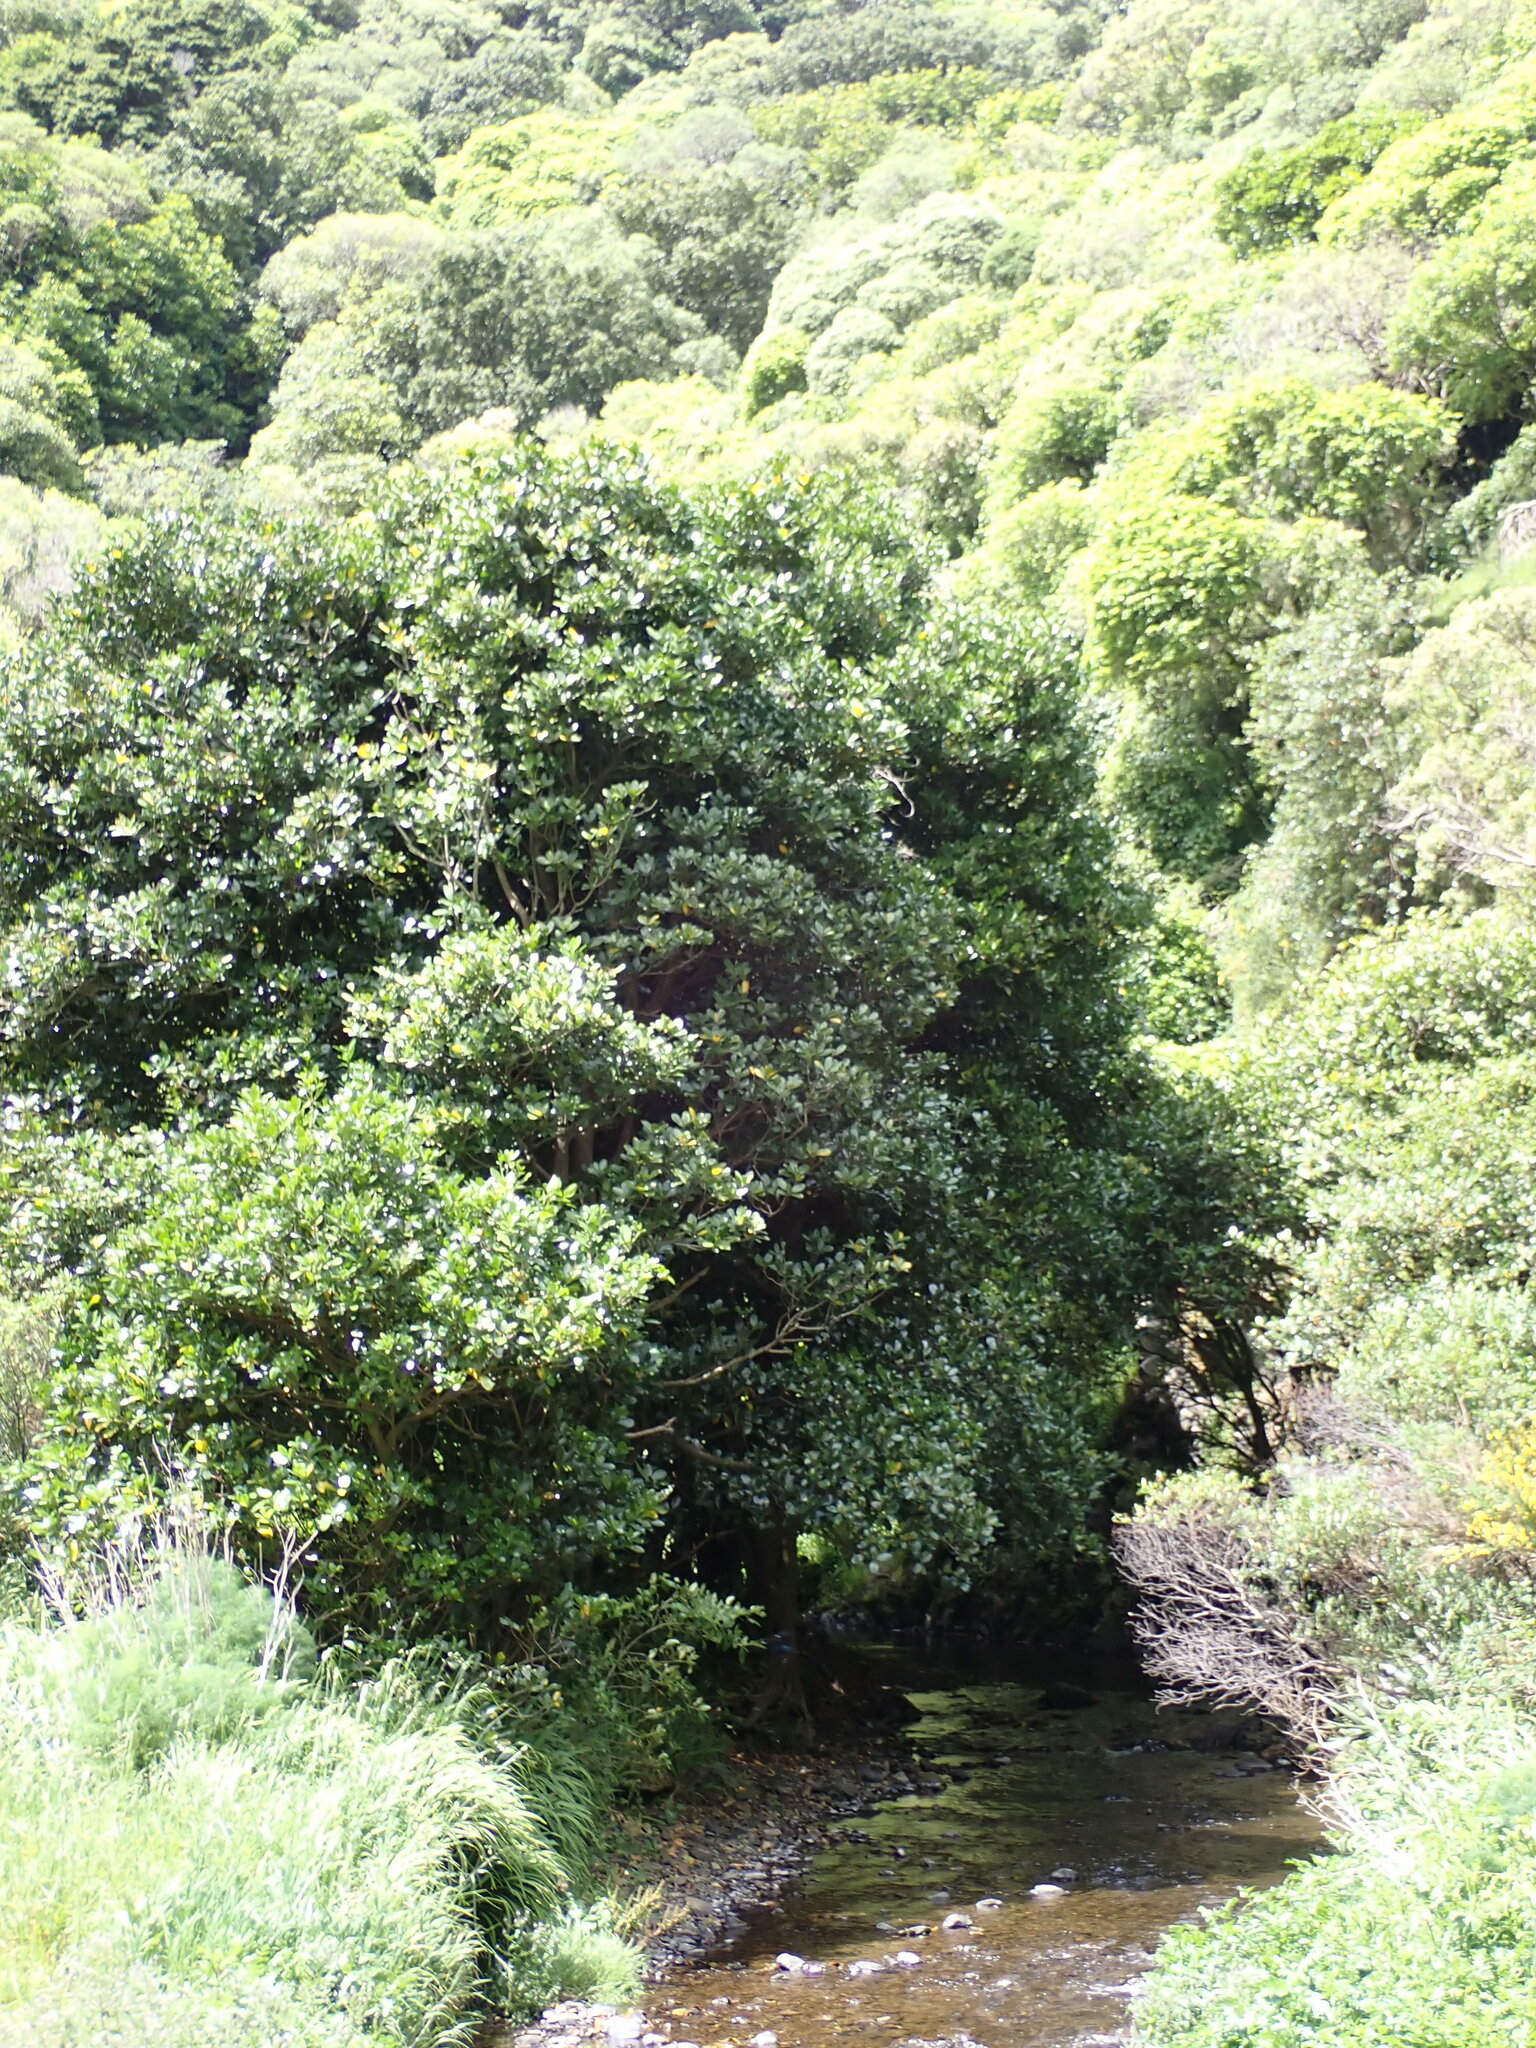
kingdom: Plantae
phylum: Tracheophyta
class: Magnoliopsida
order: Cucurbitales
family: Corynocarpaceae
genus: Corynocarpus
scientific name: Corynocarpus laevigatus
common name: New zealand laurel
